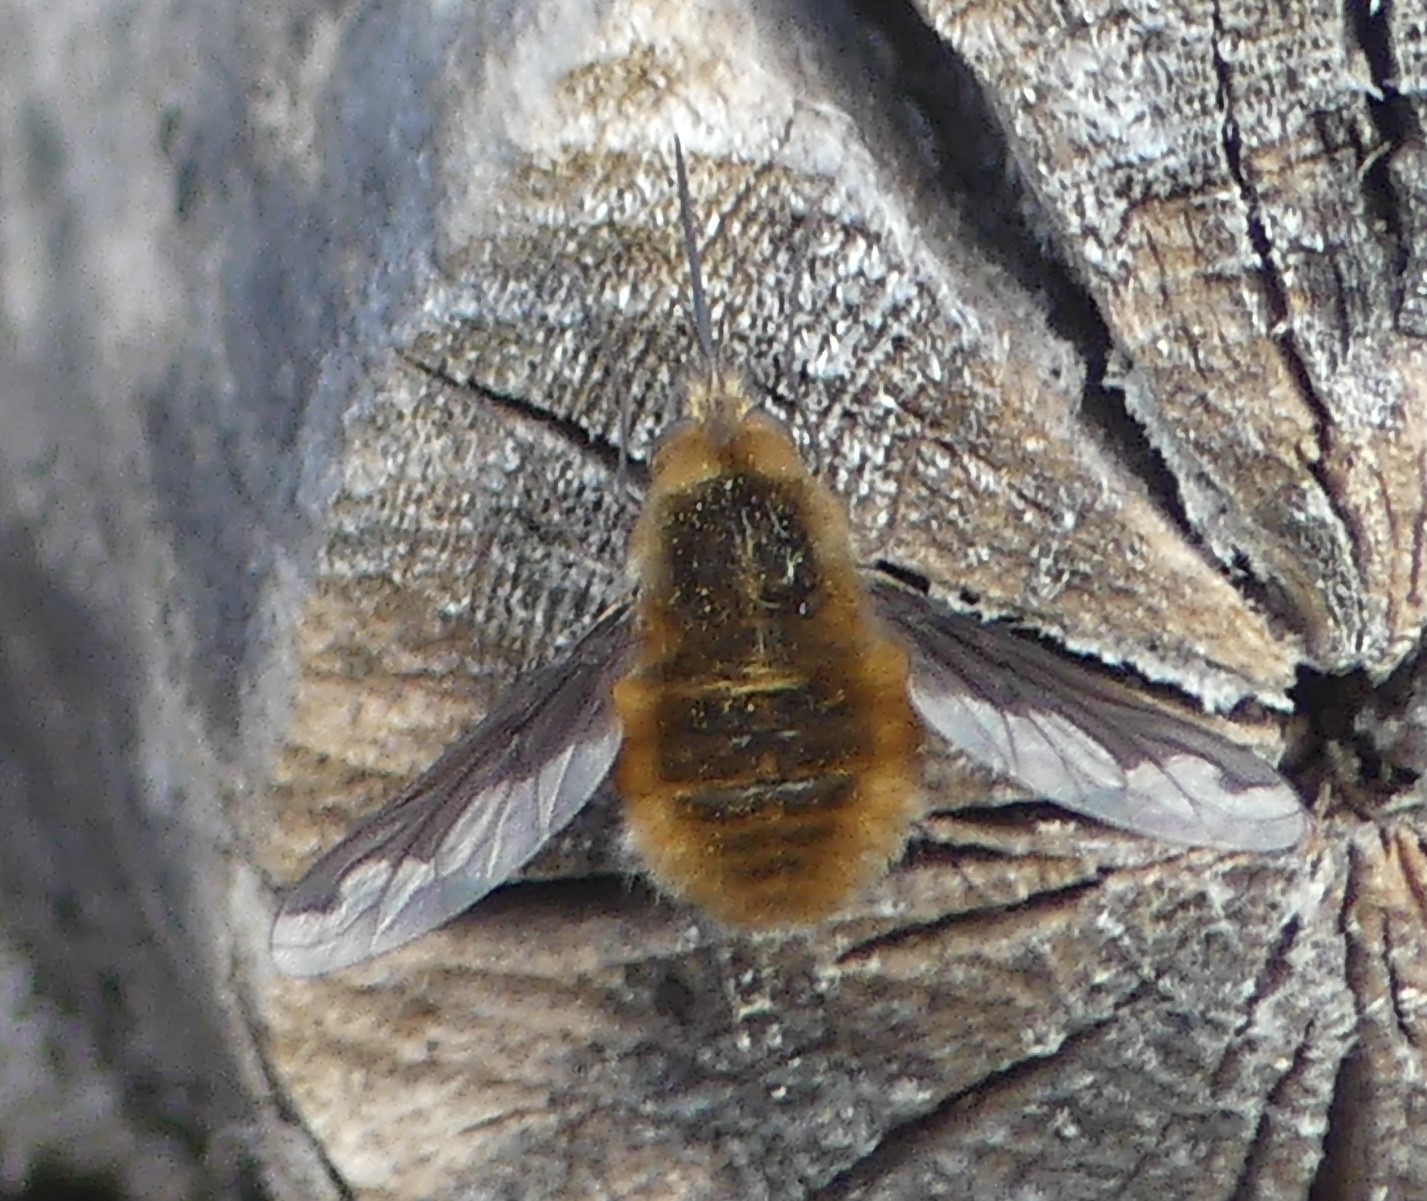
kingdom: Animalia
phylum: Arthropoda
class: Insecta
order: Diptera
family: Bombyliidae
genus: Bombylius
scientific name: Bombylius major
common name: Bee fly
